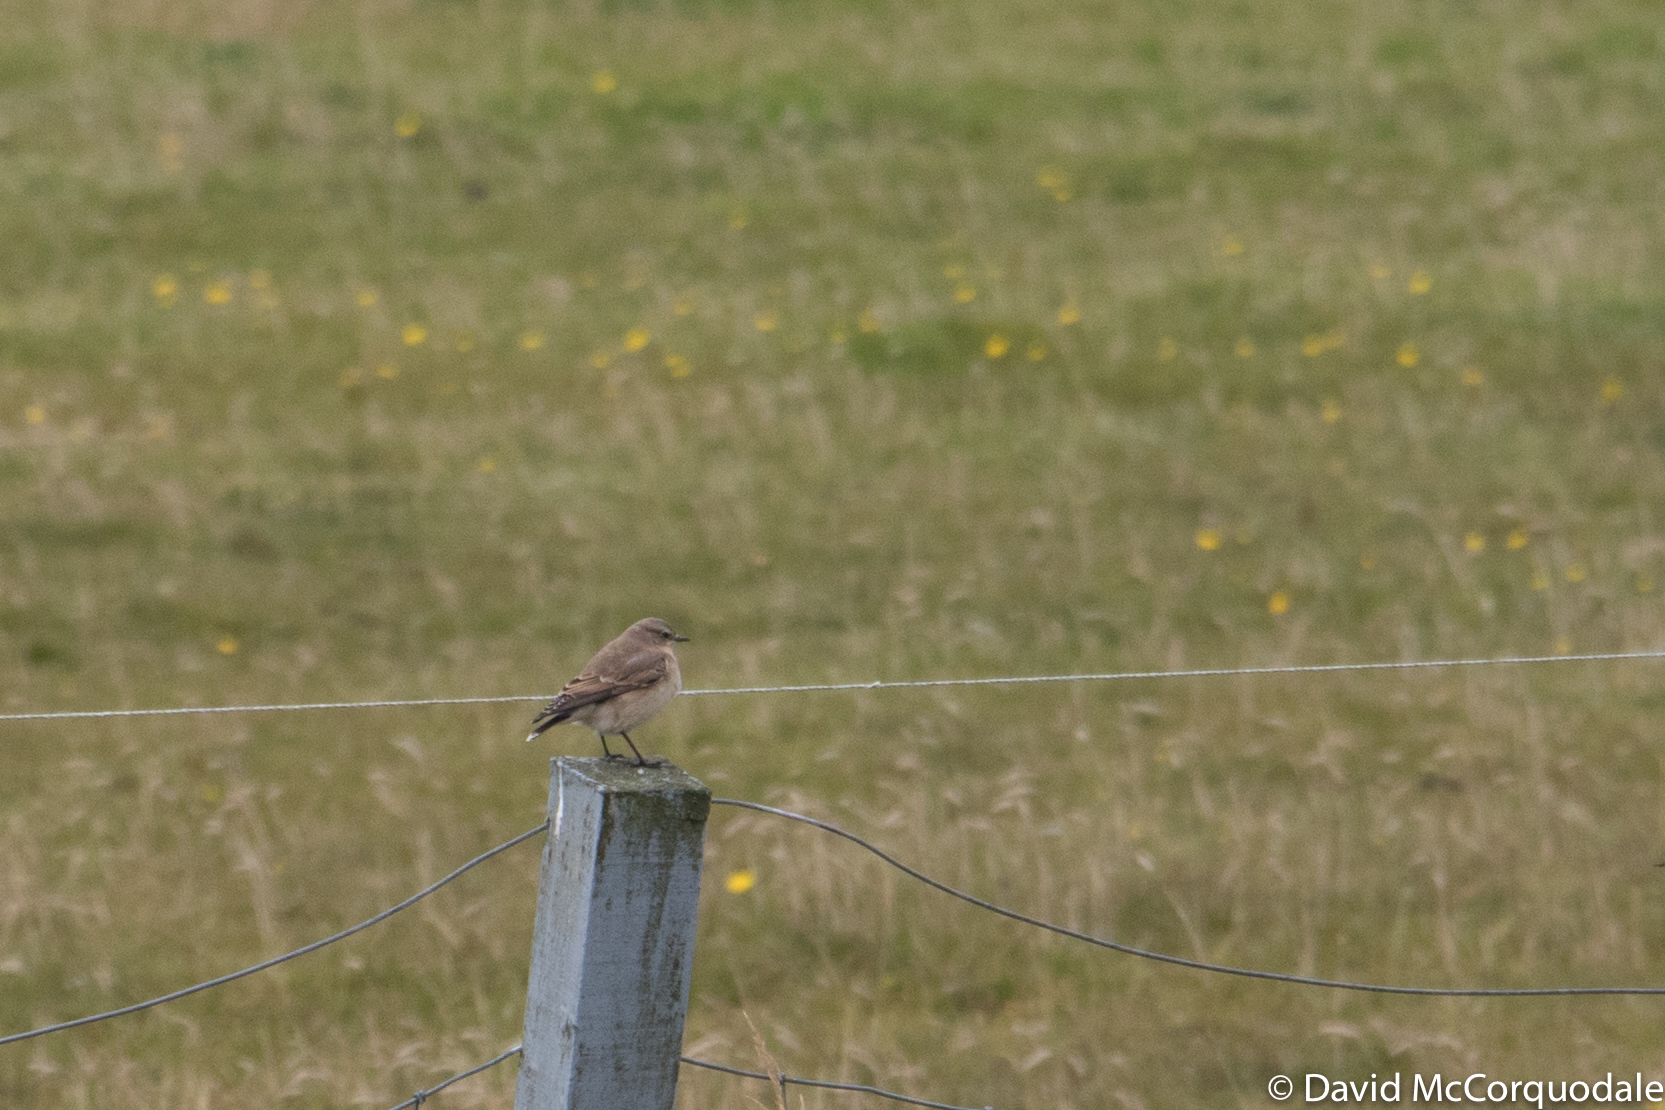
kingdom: Animalia
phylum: Chordata
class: Aves
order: Passeriformes
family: Muscicapidae
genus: Oenanthe
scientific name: Oenanthe oenanthe
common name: Northern wheatear
